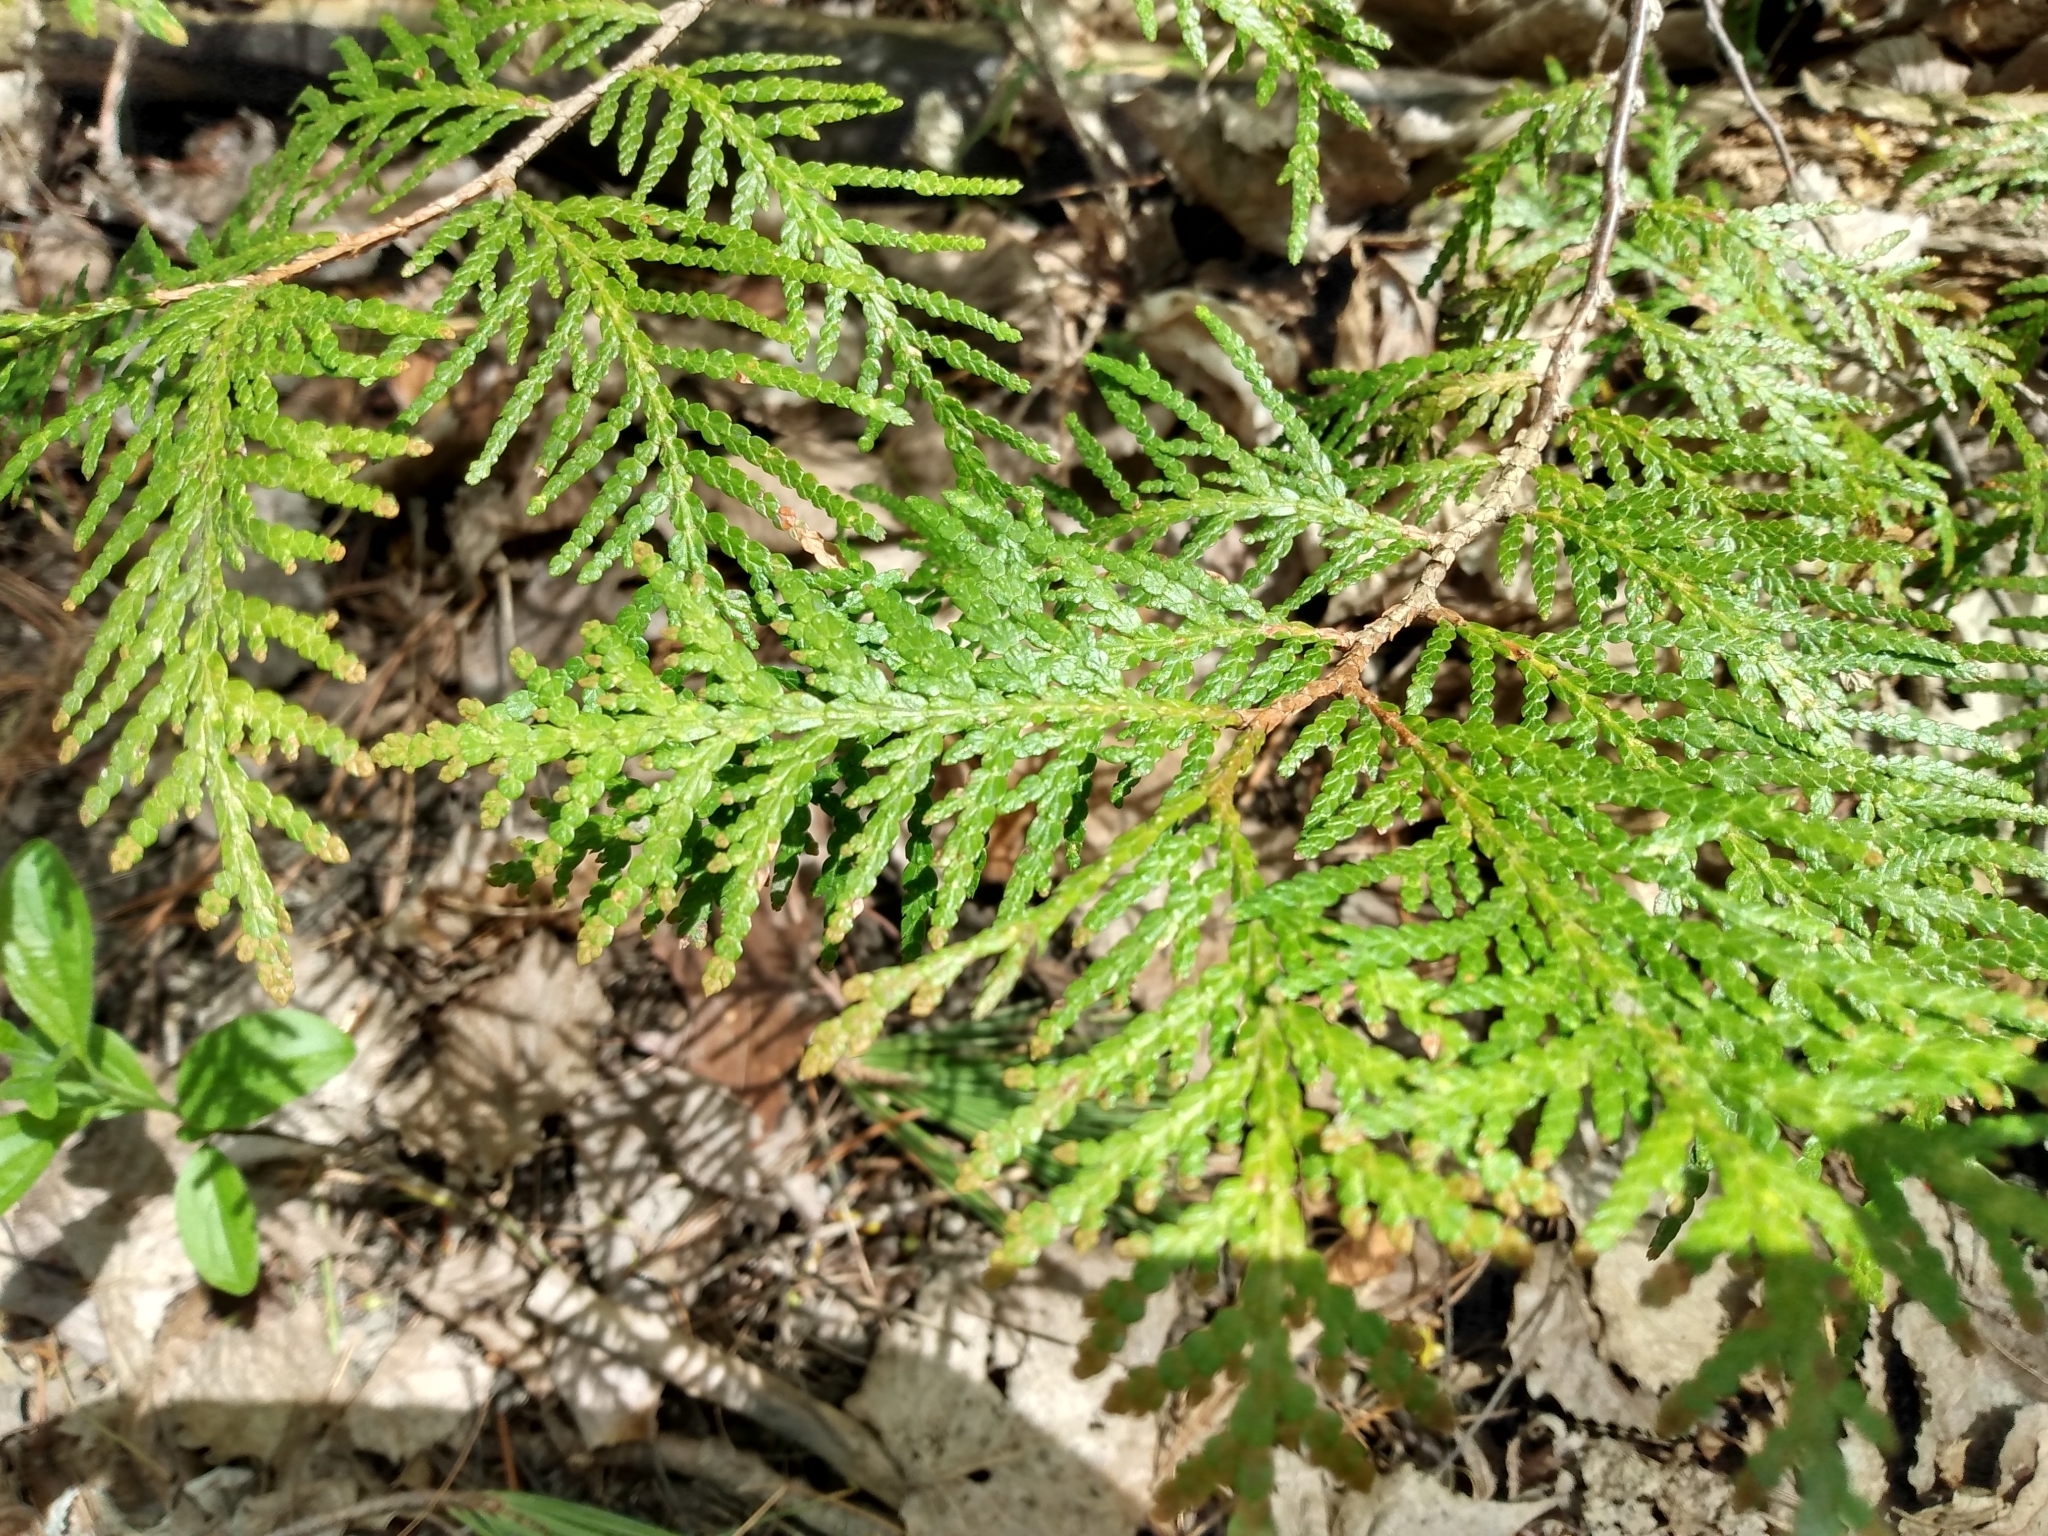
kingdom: Plantae
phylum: Tracheophyta
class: Pinopsida
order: Pinales
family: Cupressaceae
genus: Thuja
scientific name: Thuja occidentalis
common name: Northern white-cedar
